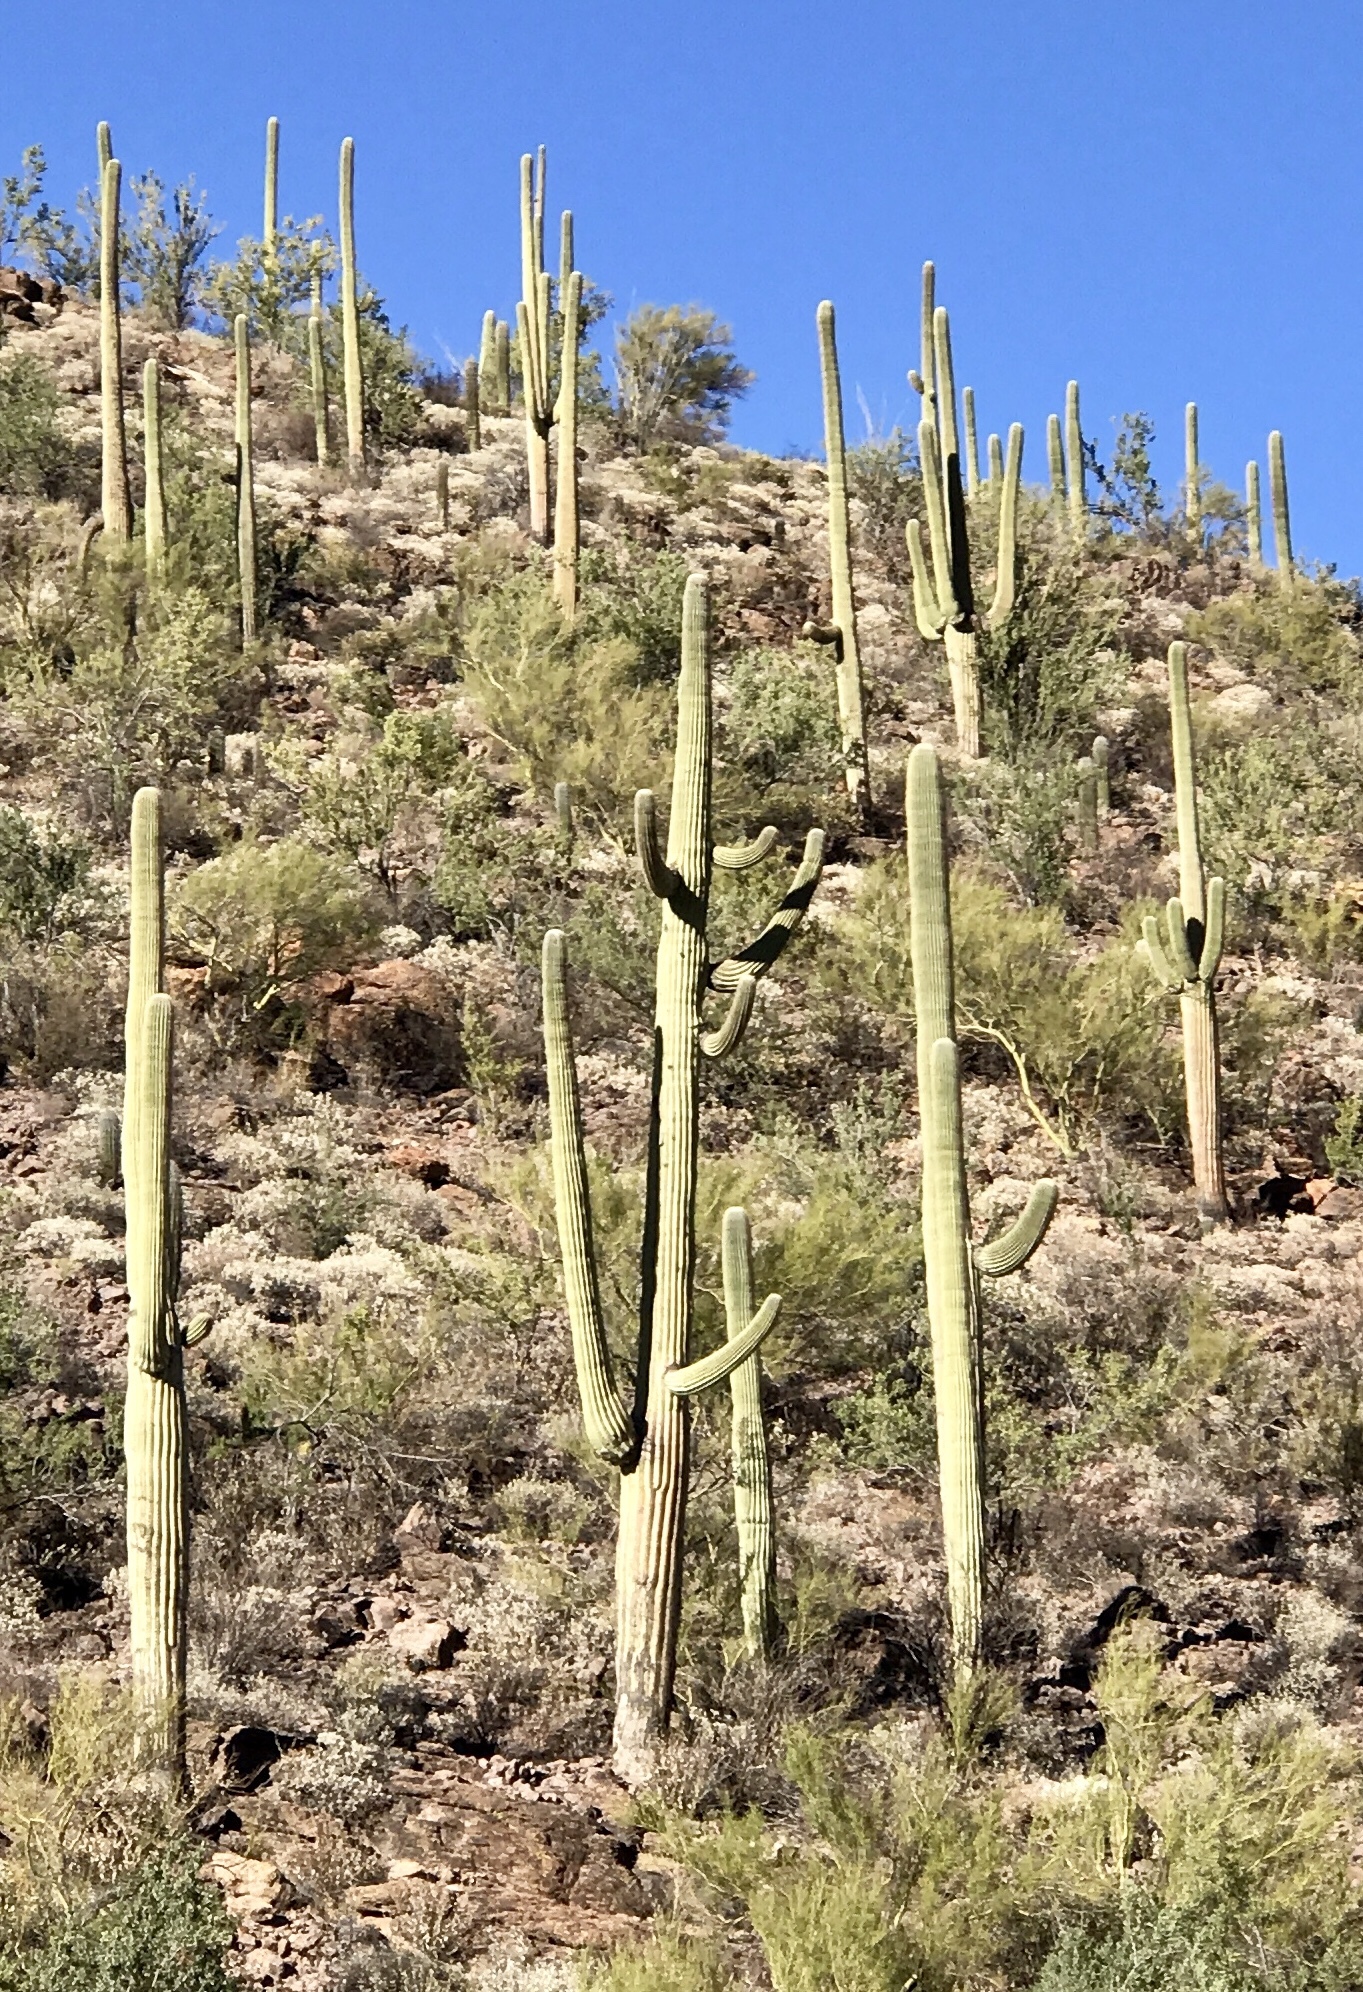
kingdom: Plantae
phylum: Tracheophyta
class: Magnoliopsida
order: Caryophyllales
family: Cactaceae
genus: Carnegiea
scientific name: Carnegiea gigantea
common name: Saguaro
